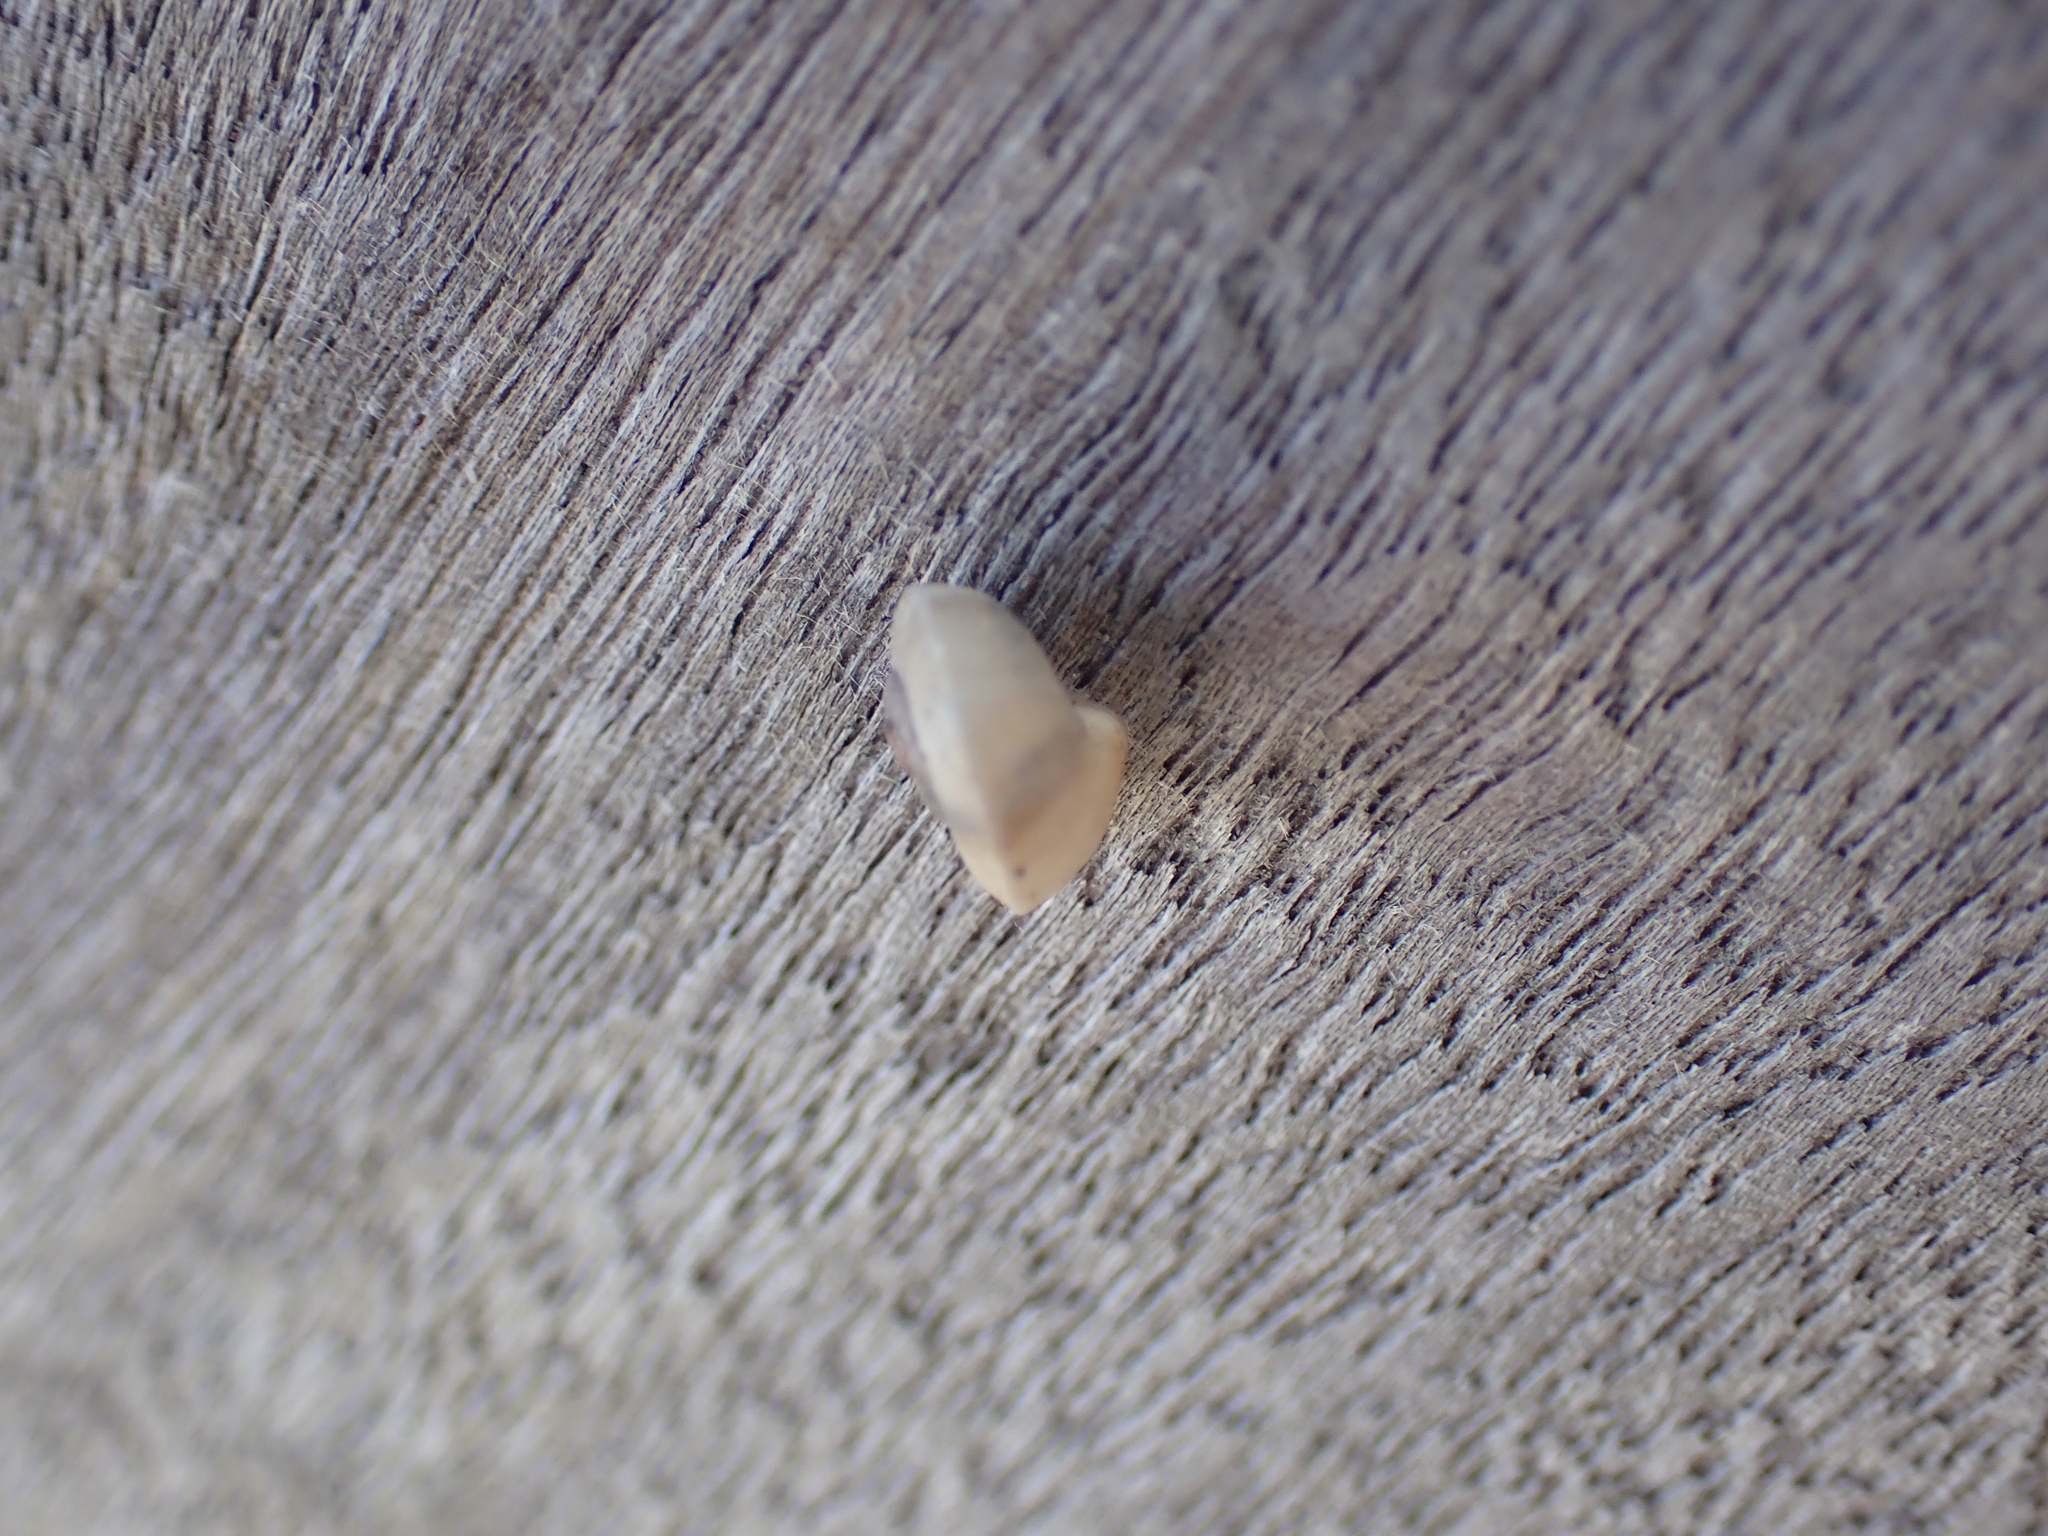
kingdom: Animalia
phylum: Mollusca
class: Gastropoda
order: Stylommatophora
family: Helicidae
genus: Theba
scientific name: Theba pisana
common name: White snail
